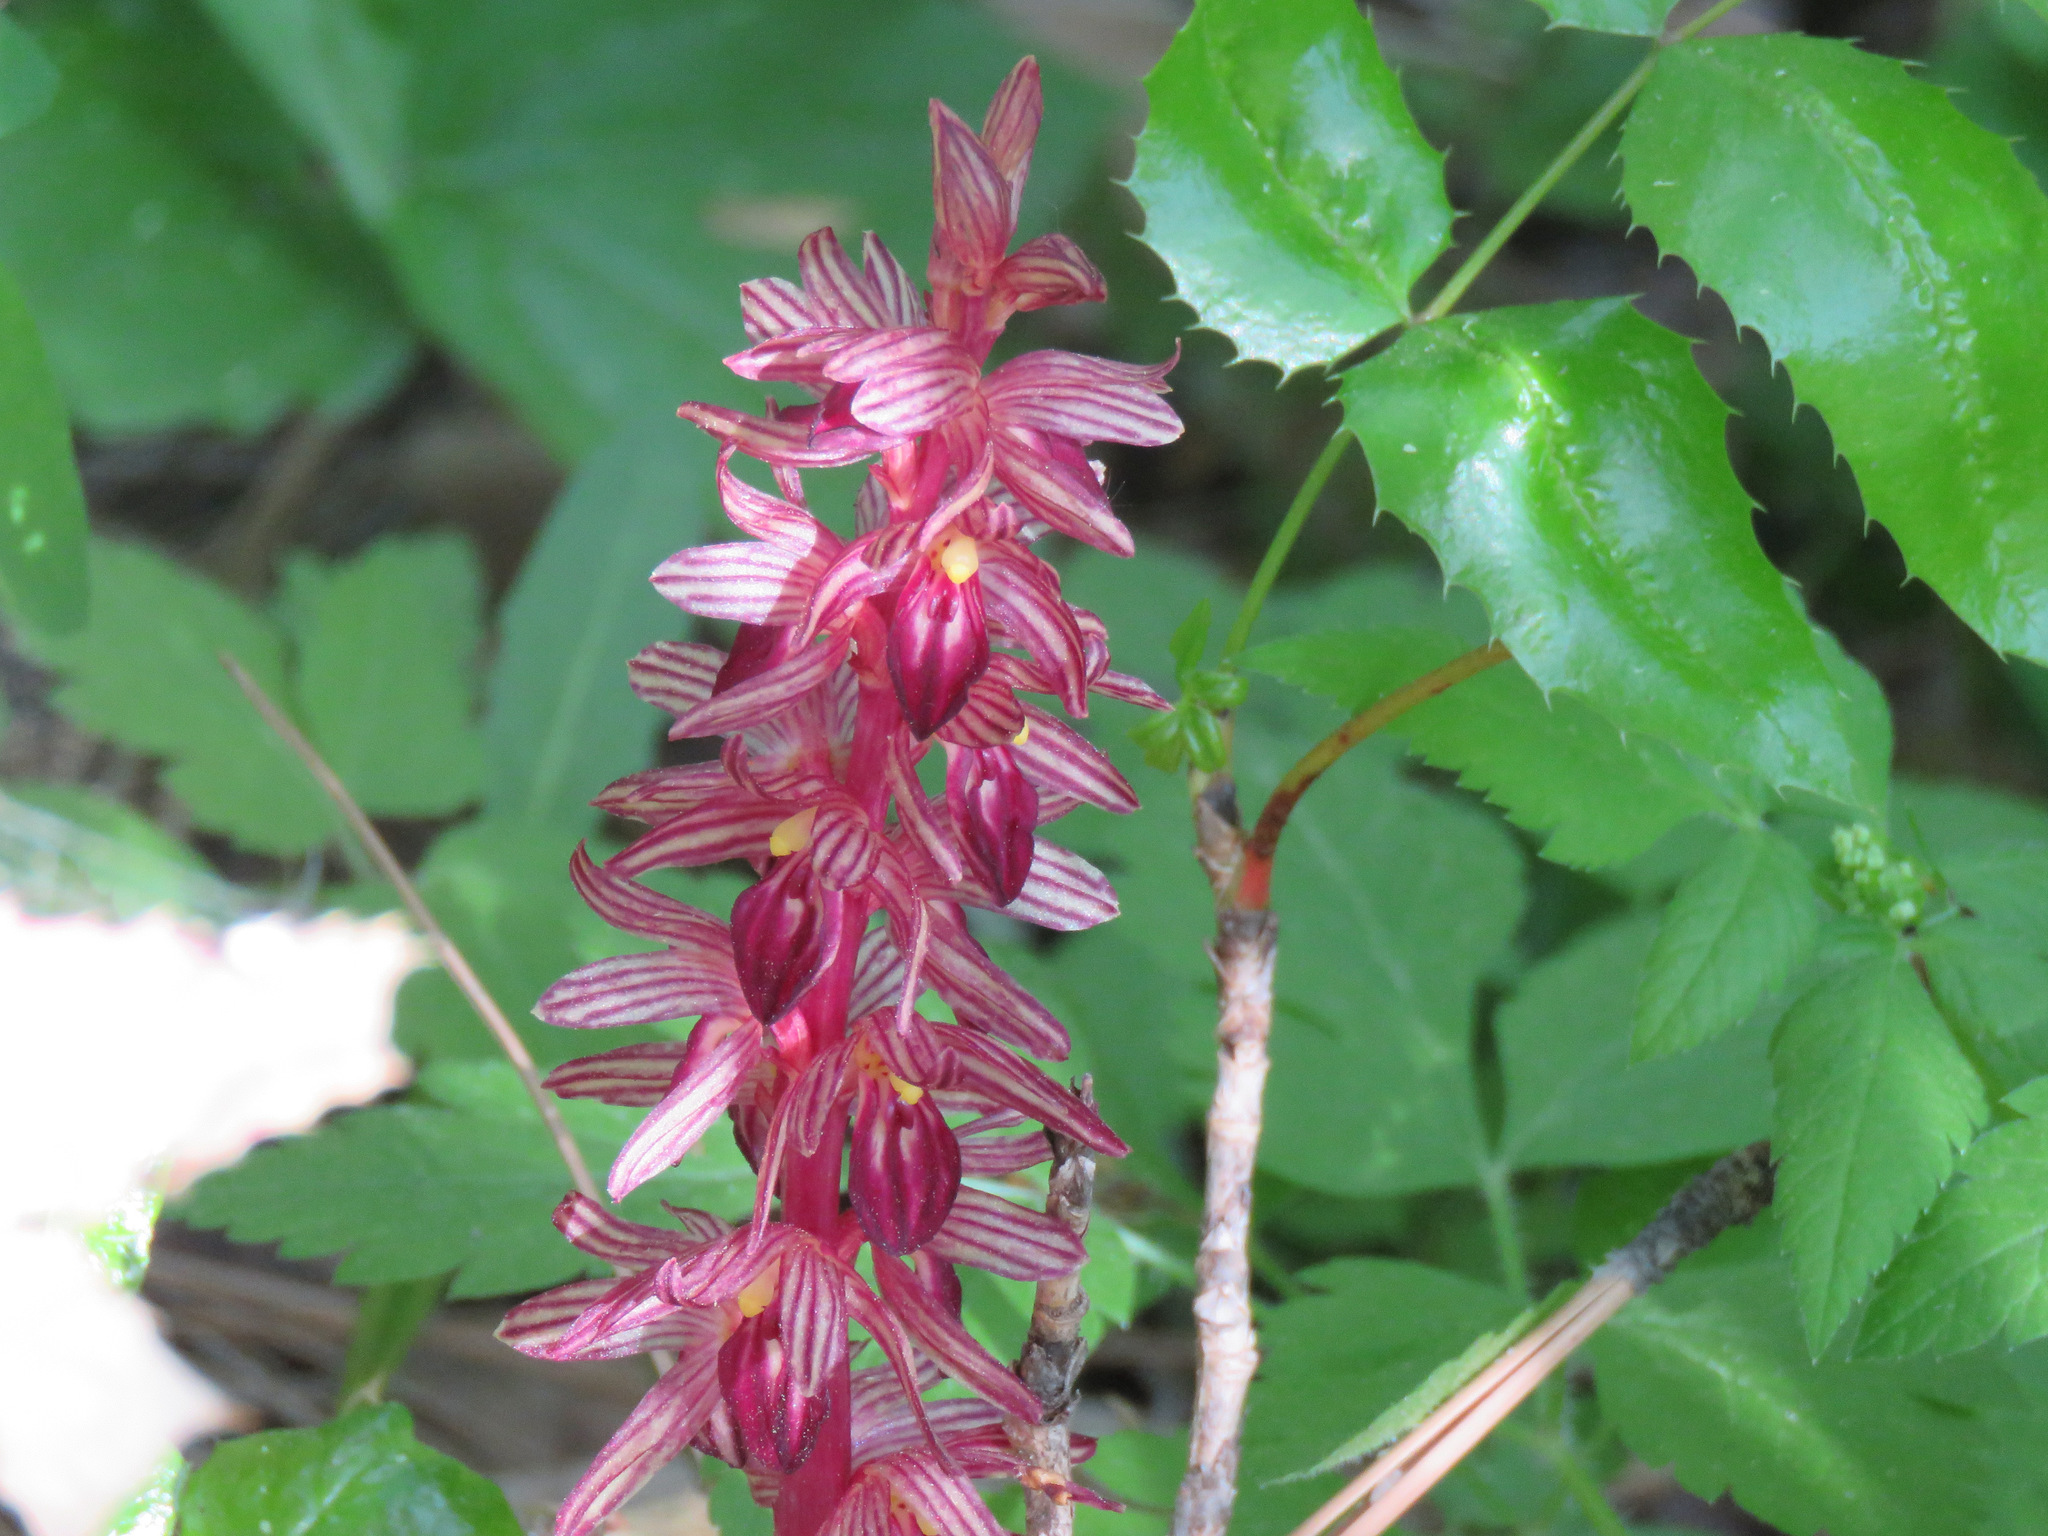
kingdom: Plantae
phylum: Tracheophyta
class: Liliopsida
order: Asparagales
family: Orchidaceae
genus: Corallorhiza
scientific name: Corallorhiza striata
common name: Hooded coralroot
